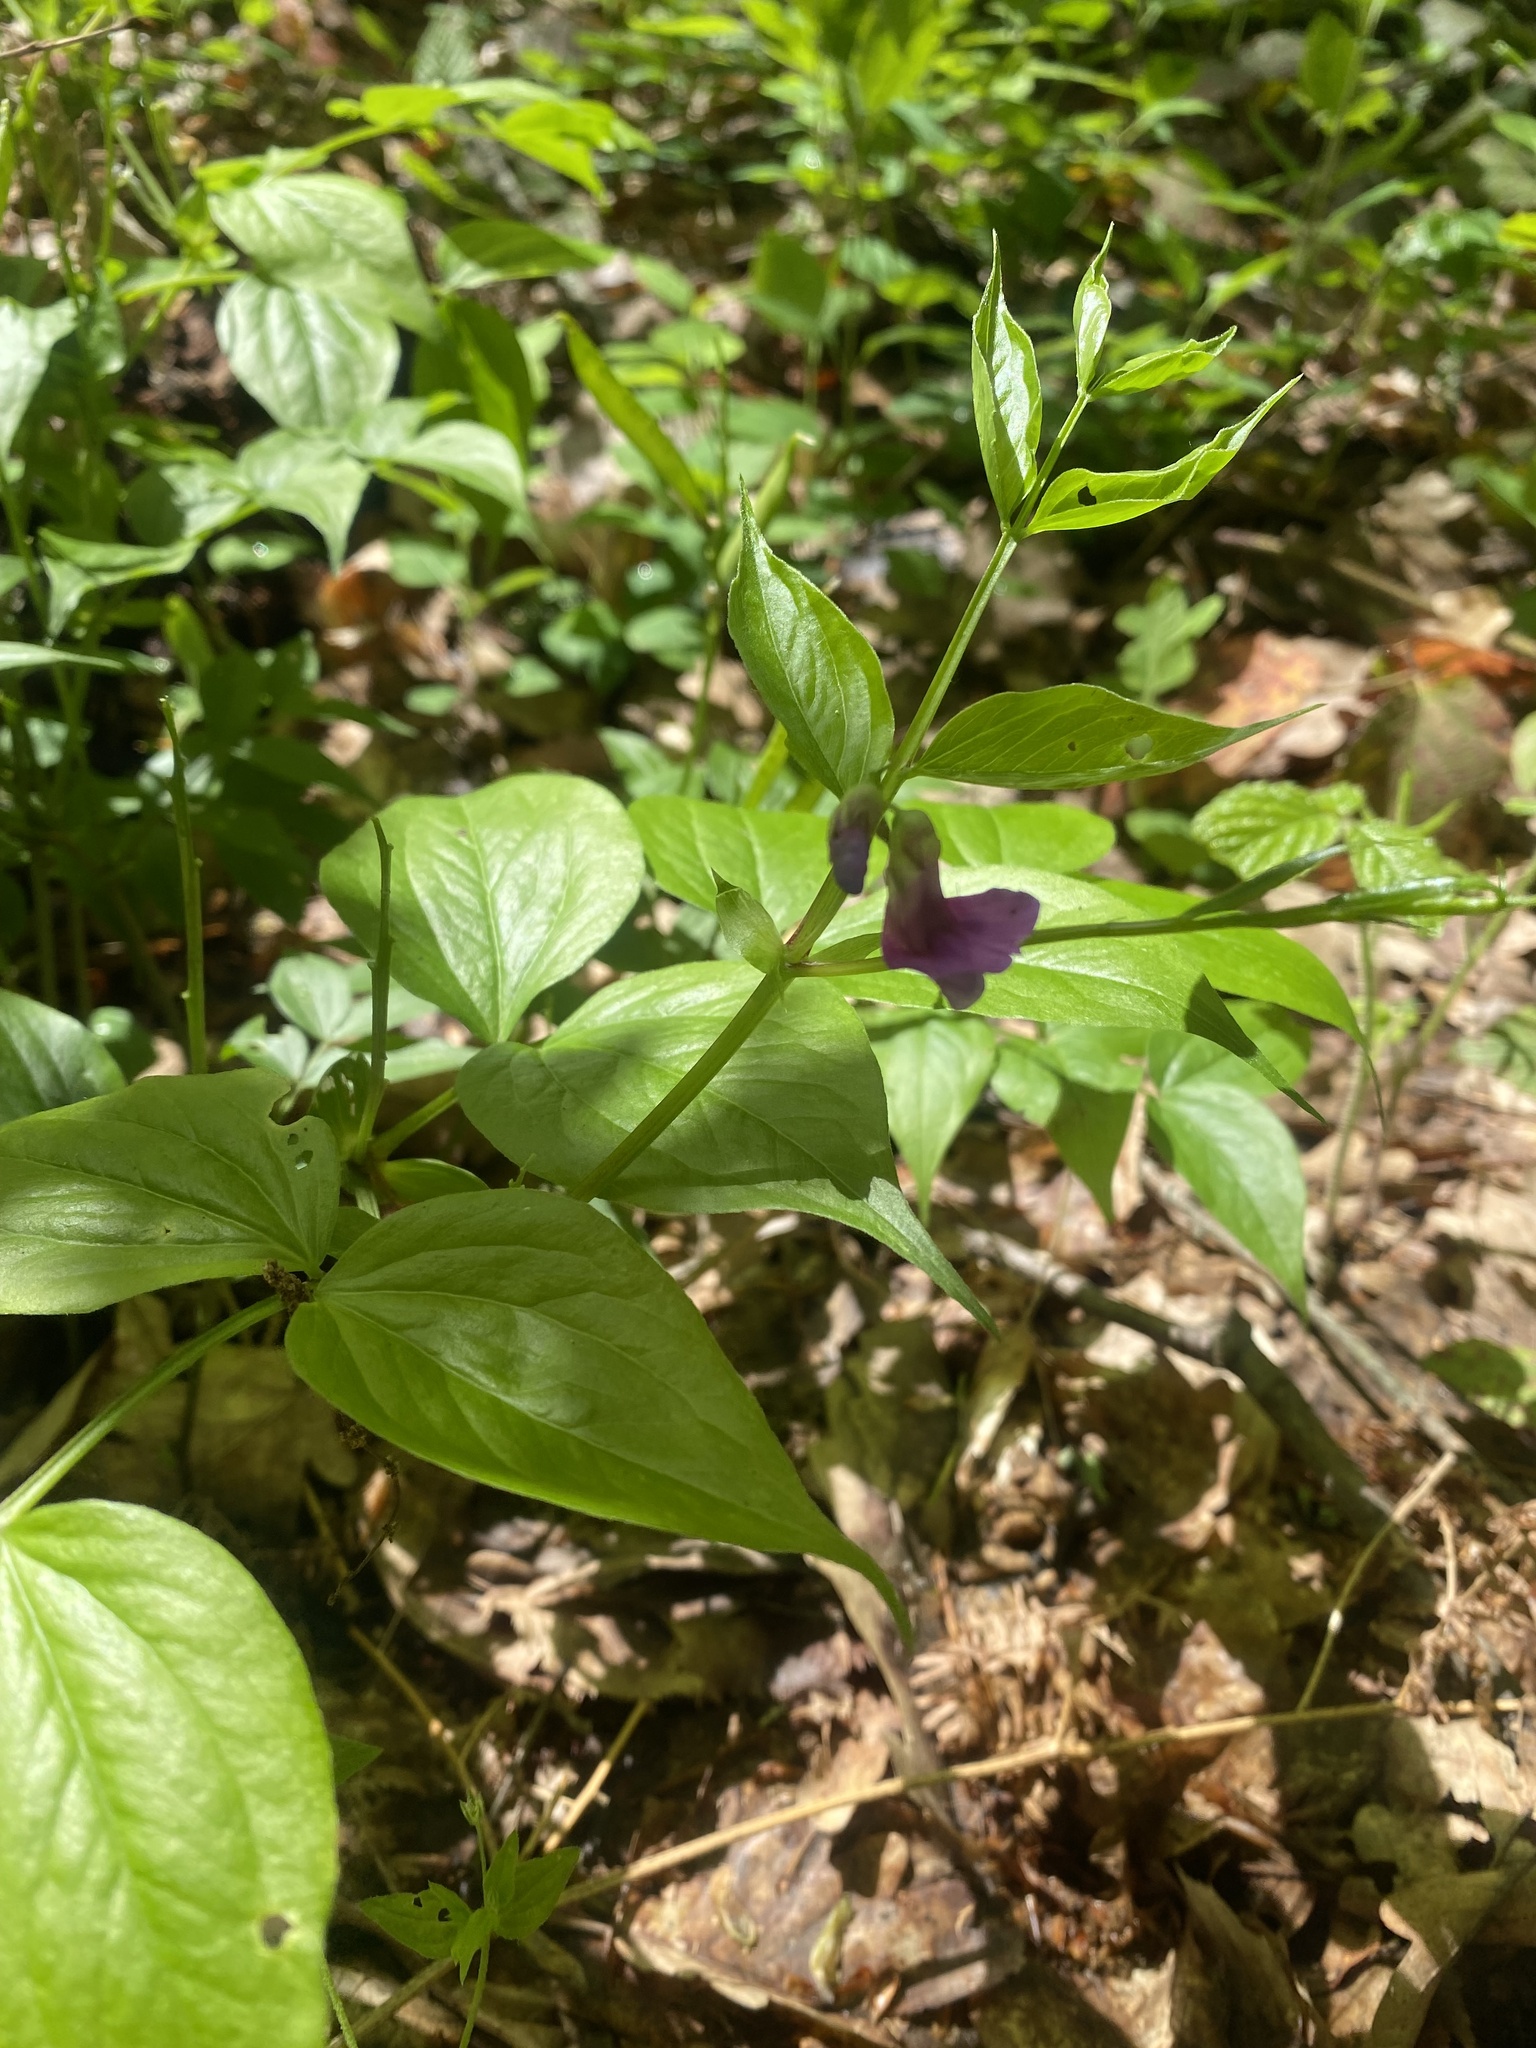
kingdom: Plantae
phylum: Tracheophyta
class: Magnoliopsida
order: Fabales
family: Fabaceae
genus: Lathyrus
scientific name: Lathyrus vernus
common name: Spring pea
